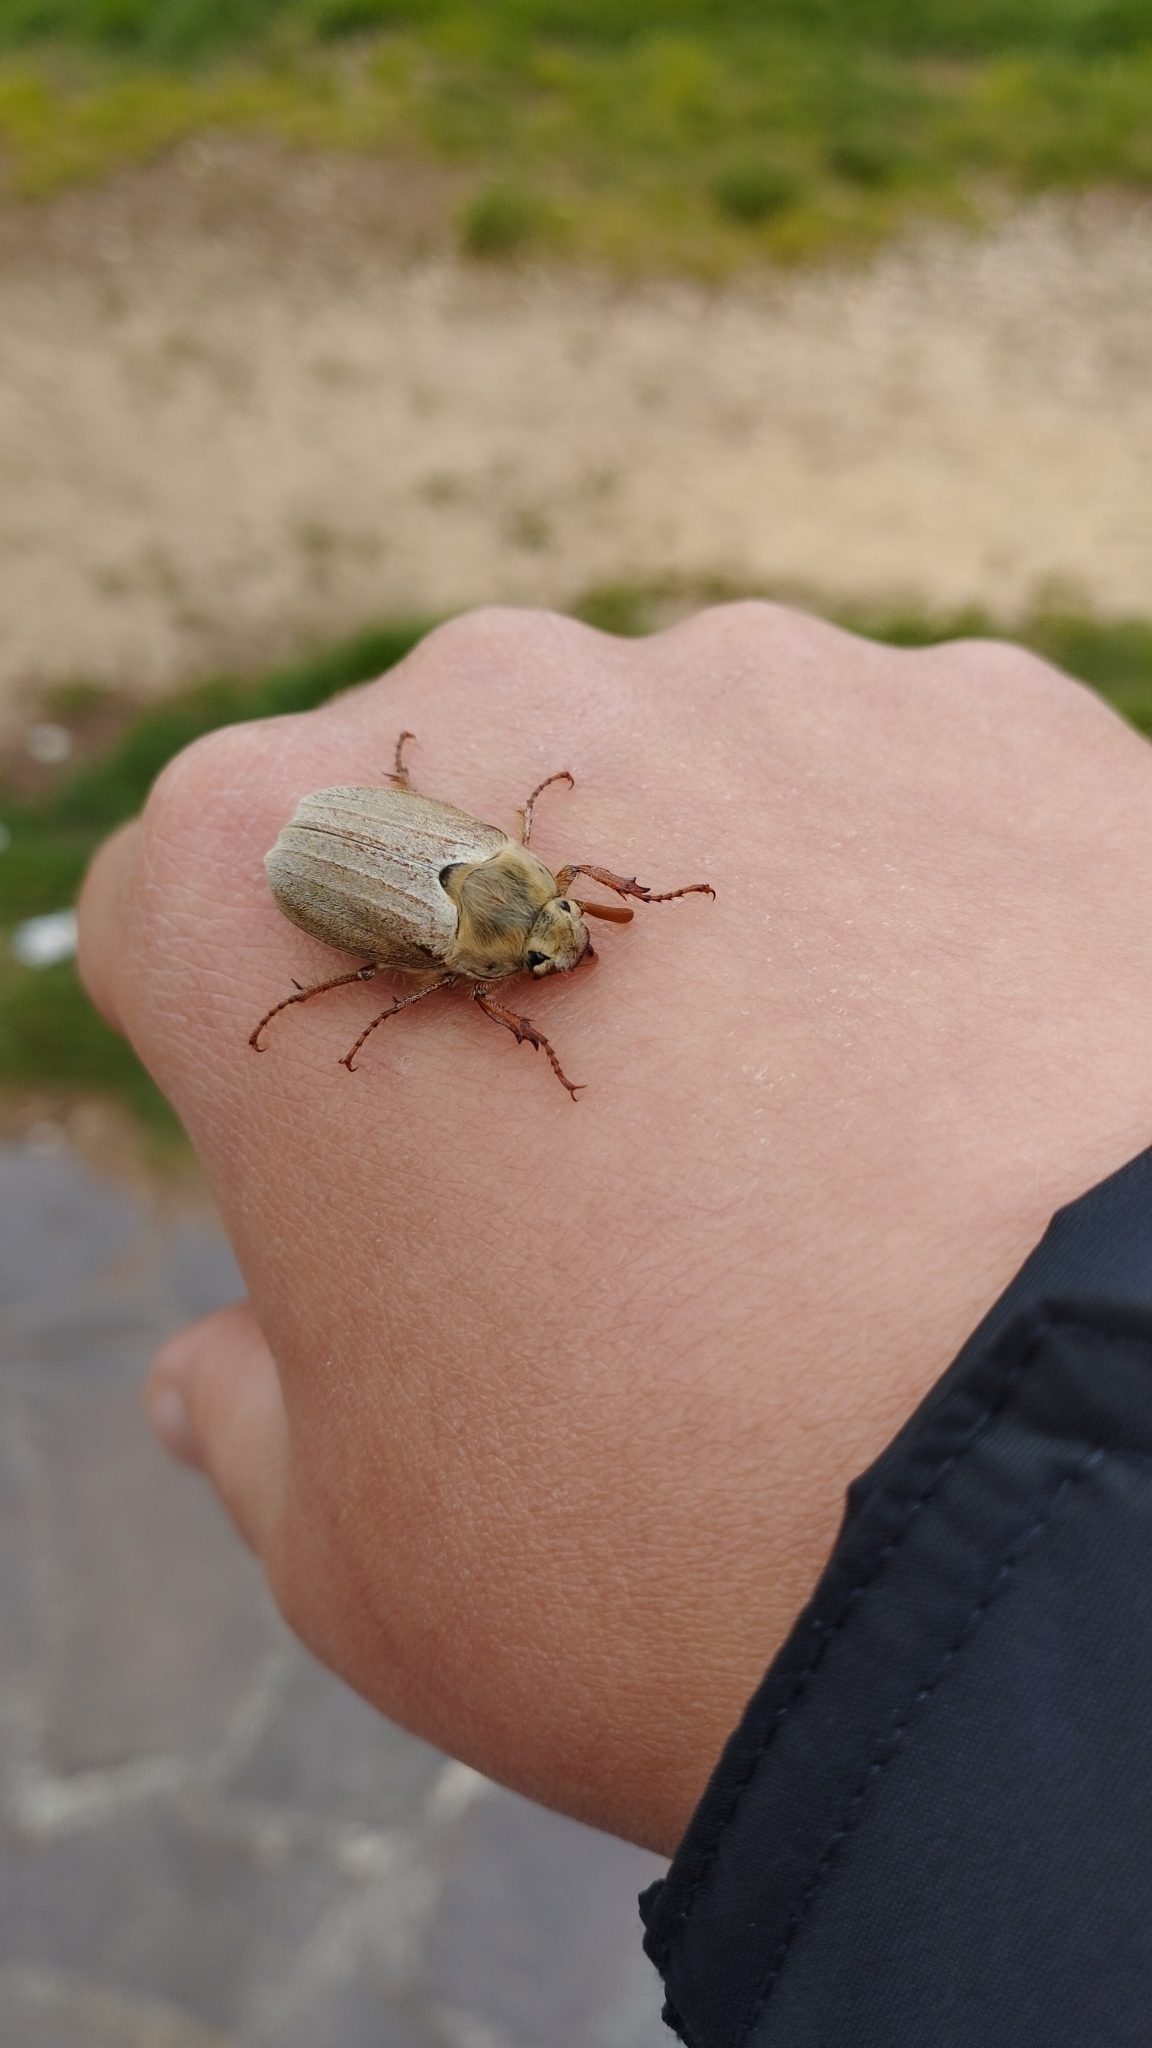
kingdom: Animalia
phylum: Arthropoda
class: Insecta
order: Coleoptera
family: Scarabaeidae
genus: Melolontha
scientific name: Melolontha melolontha
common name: Cockchafer maybeetle
